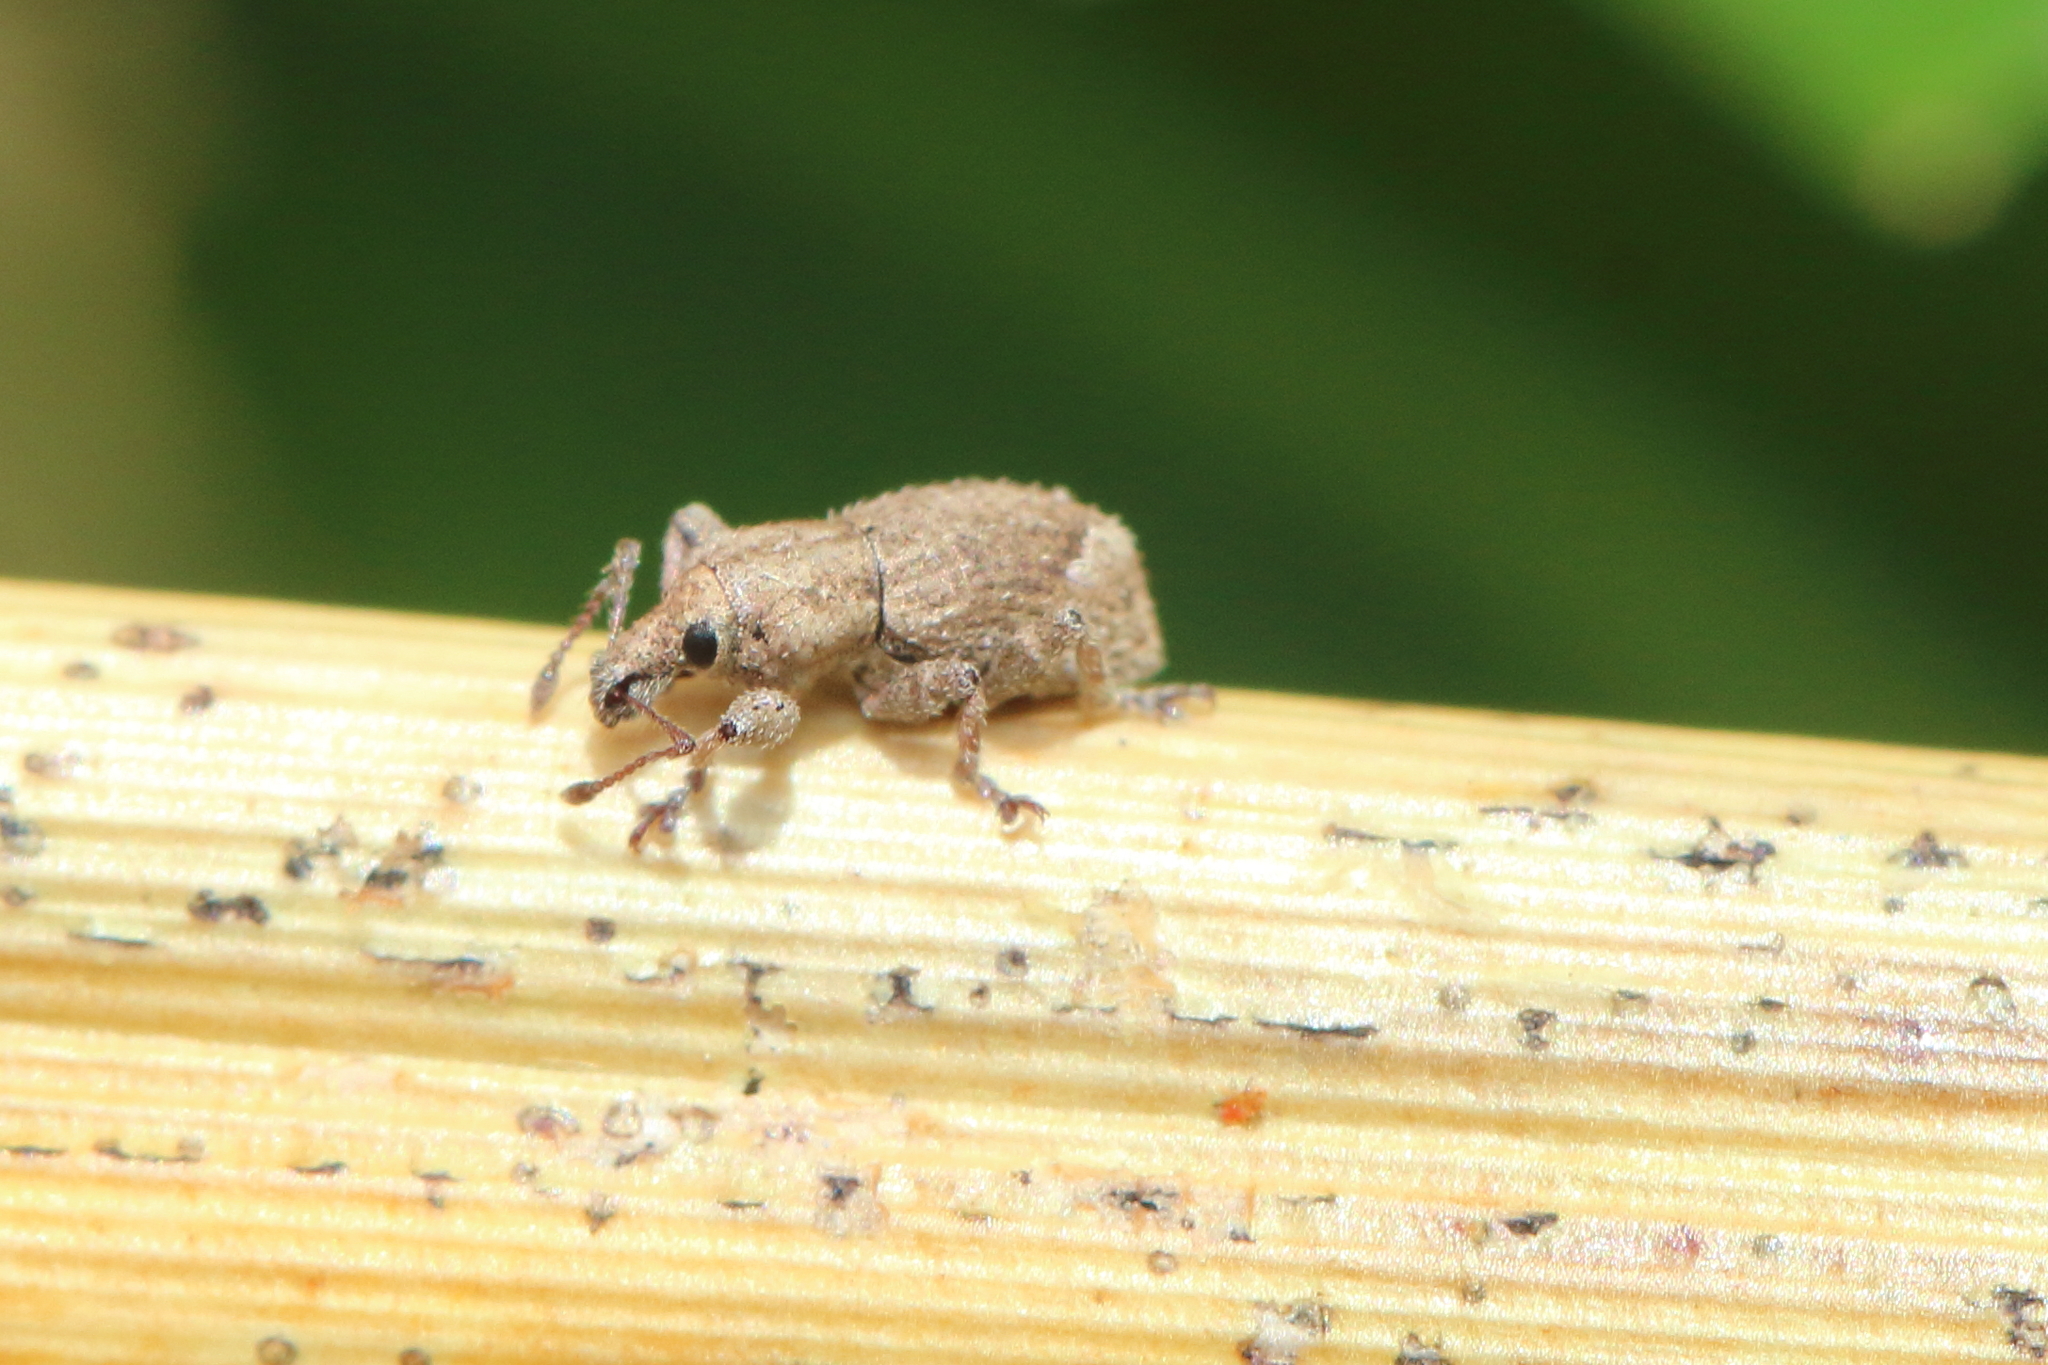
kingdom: Animalia
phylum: Arthropoda
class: Insecta
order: Coleoptera
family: Curculionidae
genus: Chalepistes
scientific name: Chalepistes aequalis
